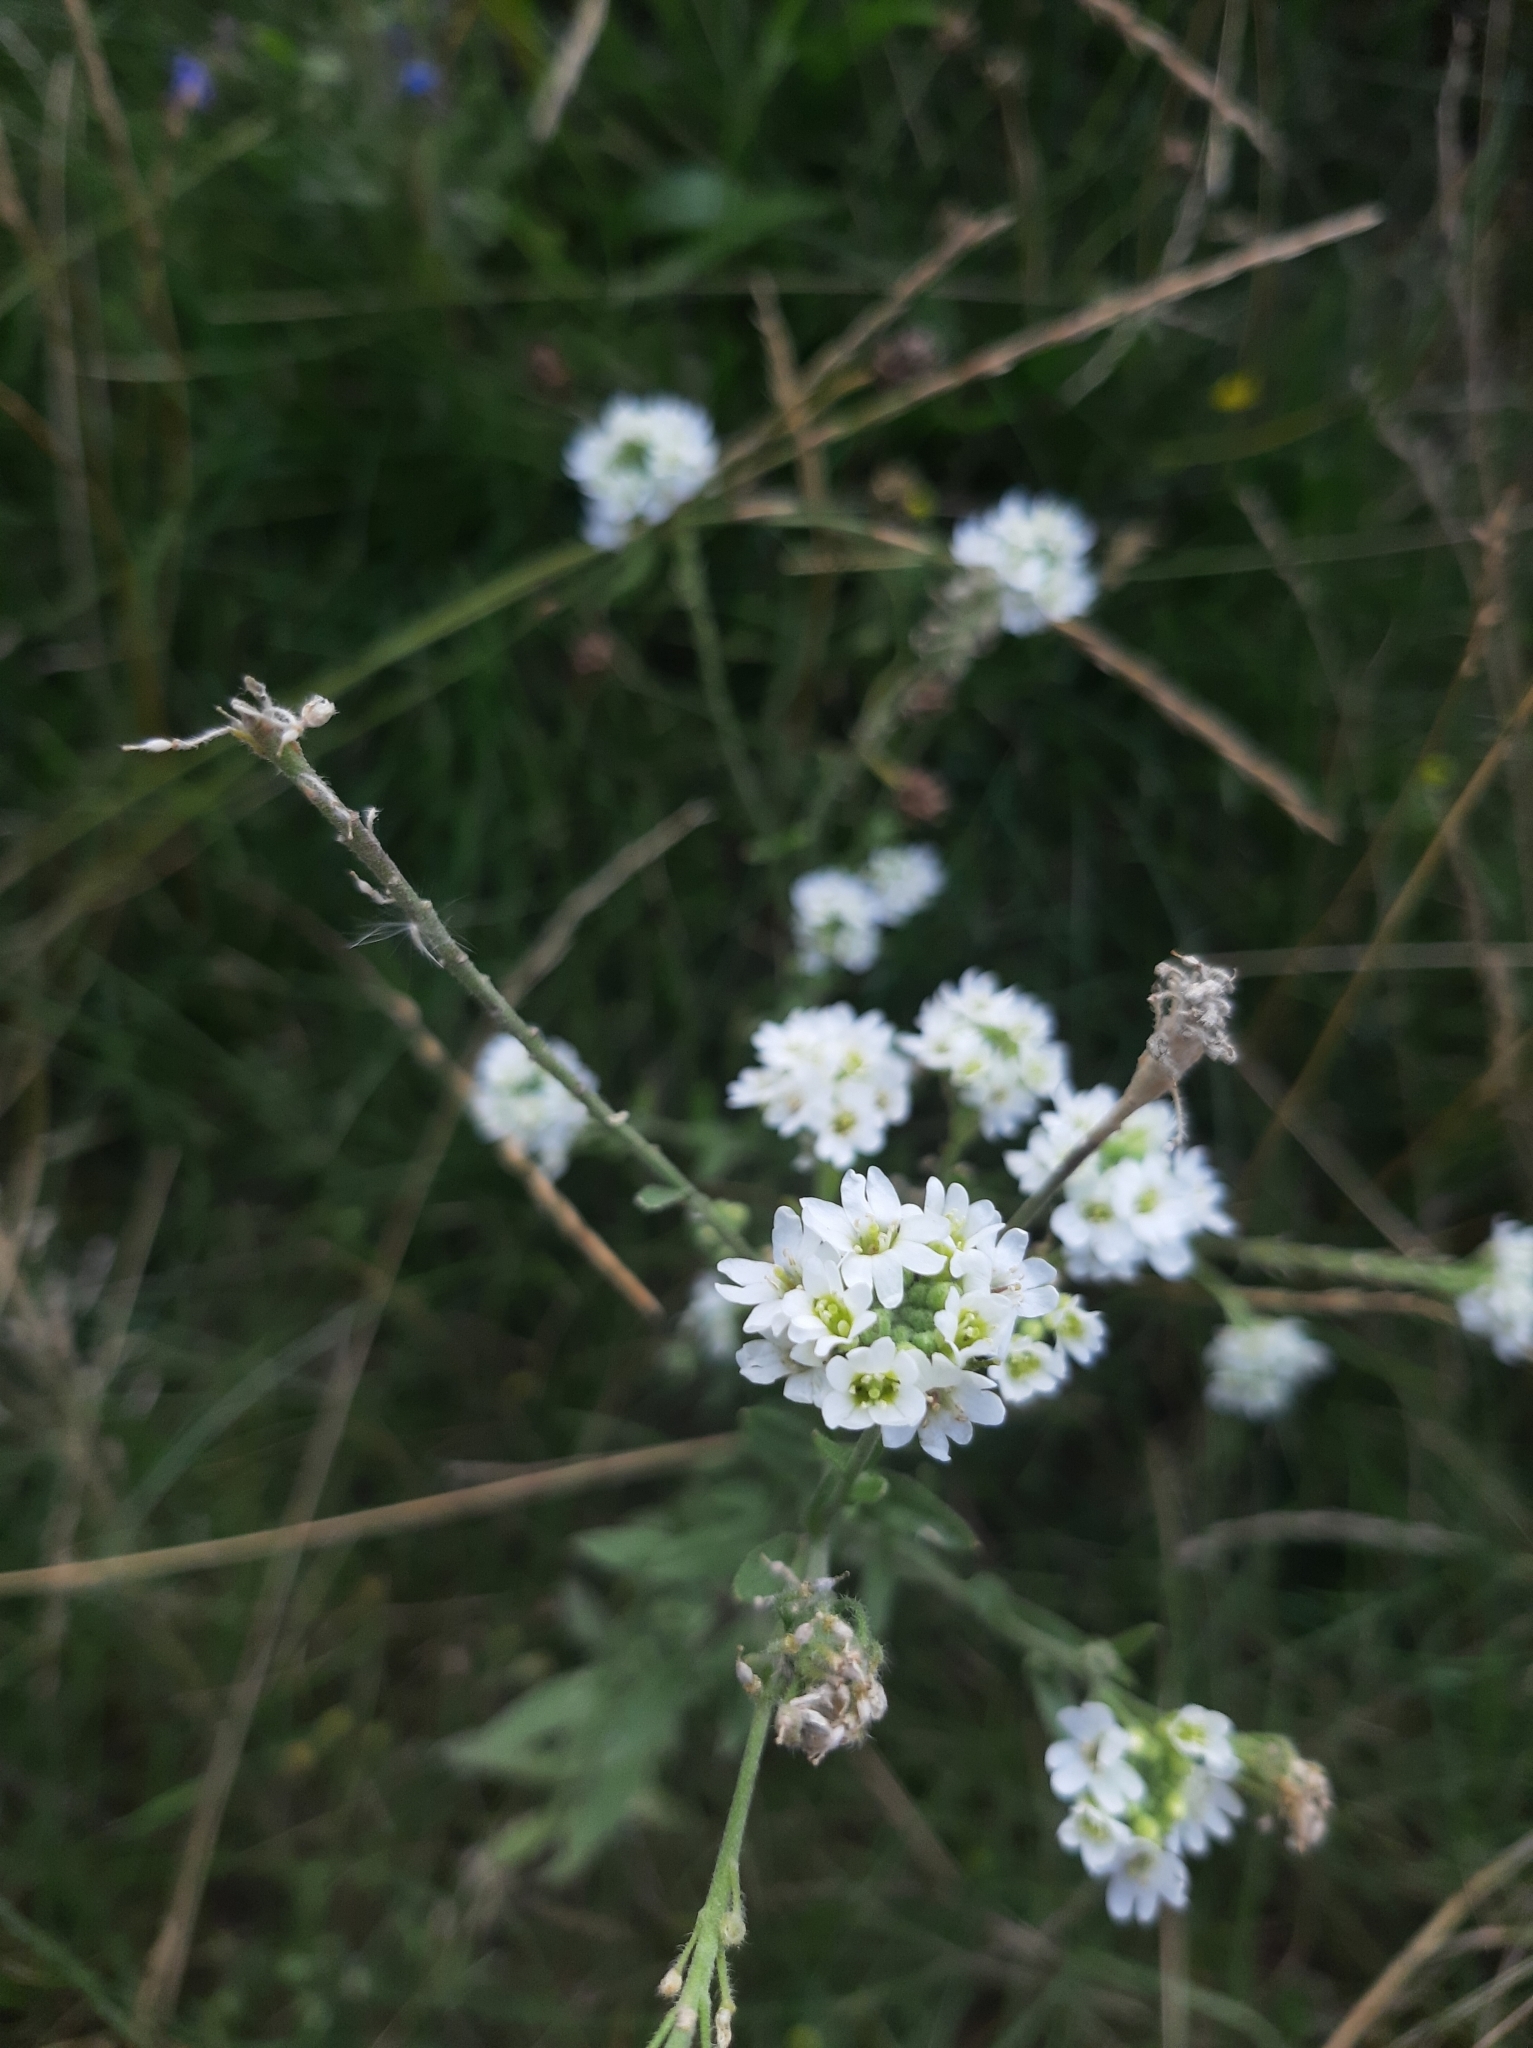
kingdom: Plantae
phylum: Tracheophyta
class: Magnoliopsida
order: Brassicales
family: Brassicaceae
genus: Berteroa
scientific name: Berteroa incana
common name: Hoary alison
